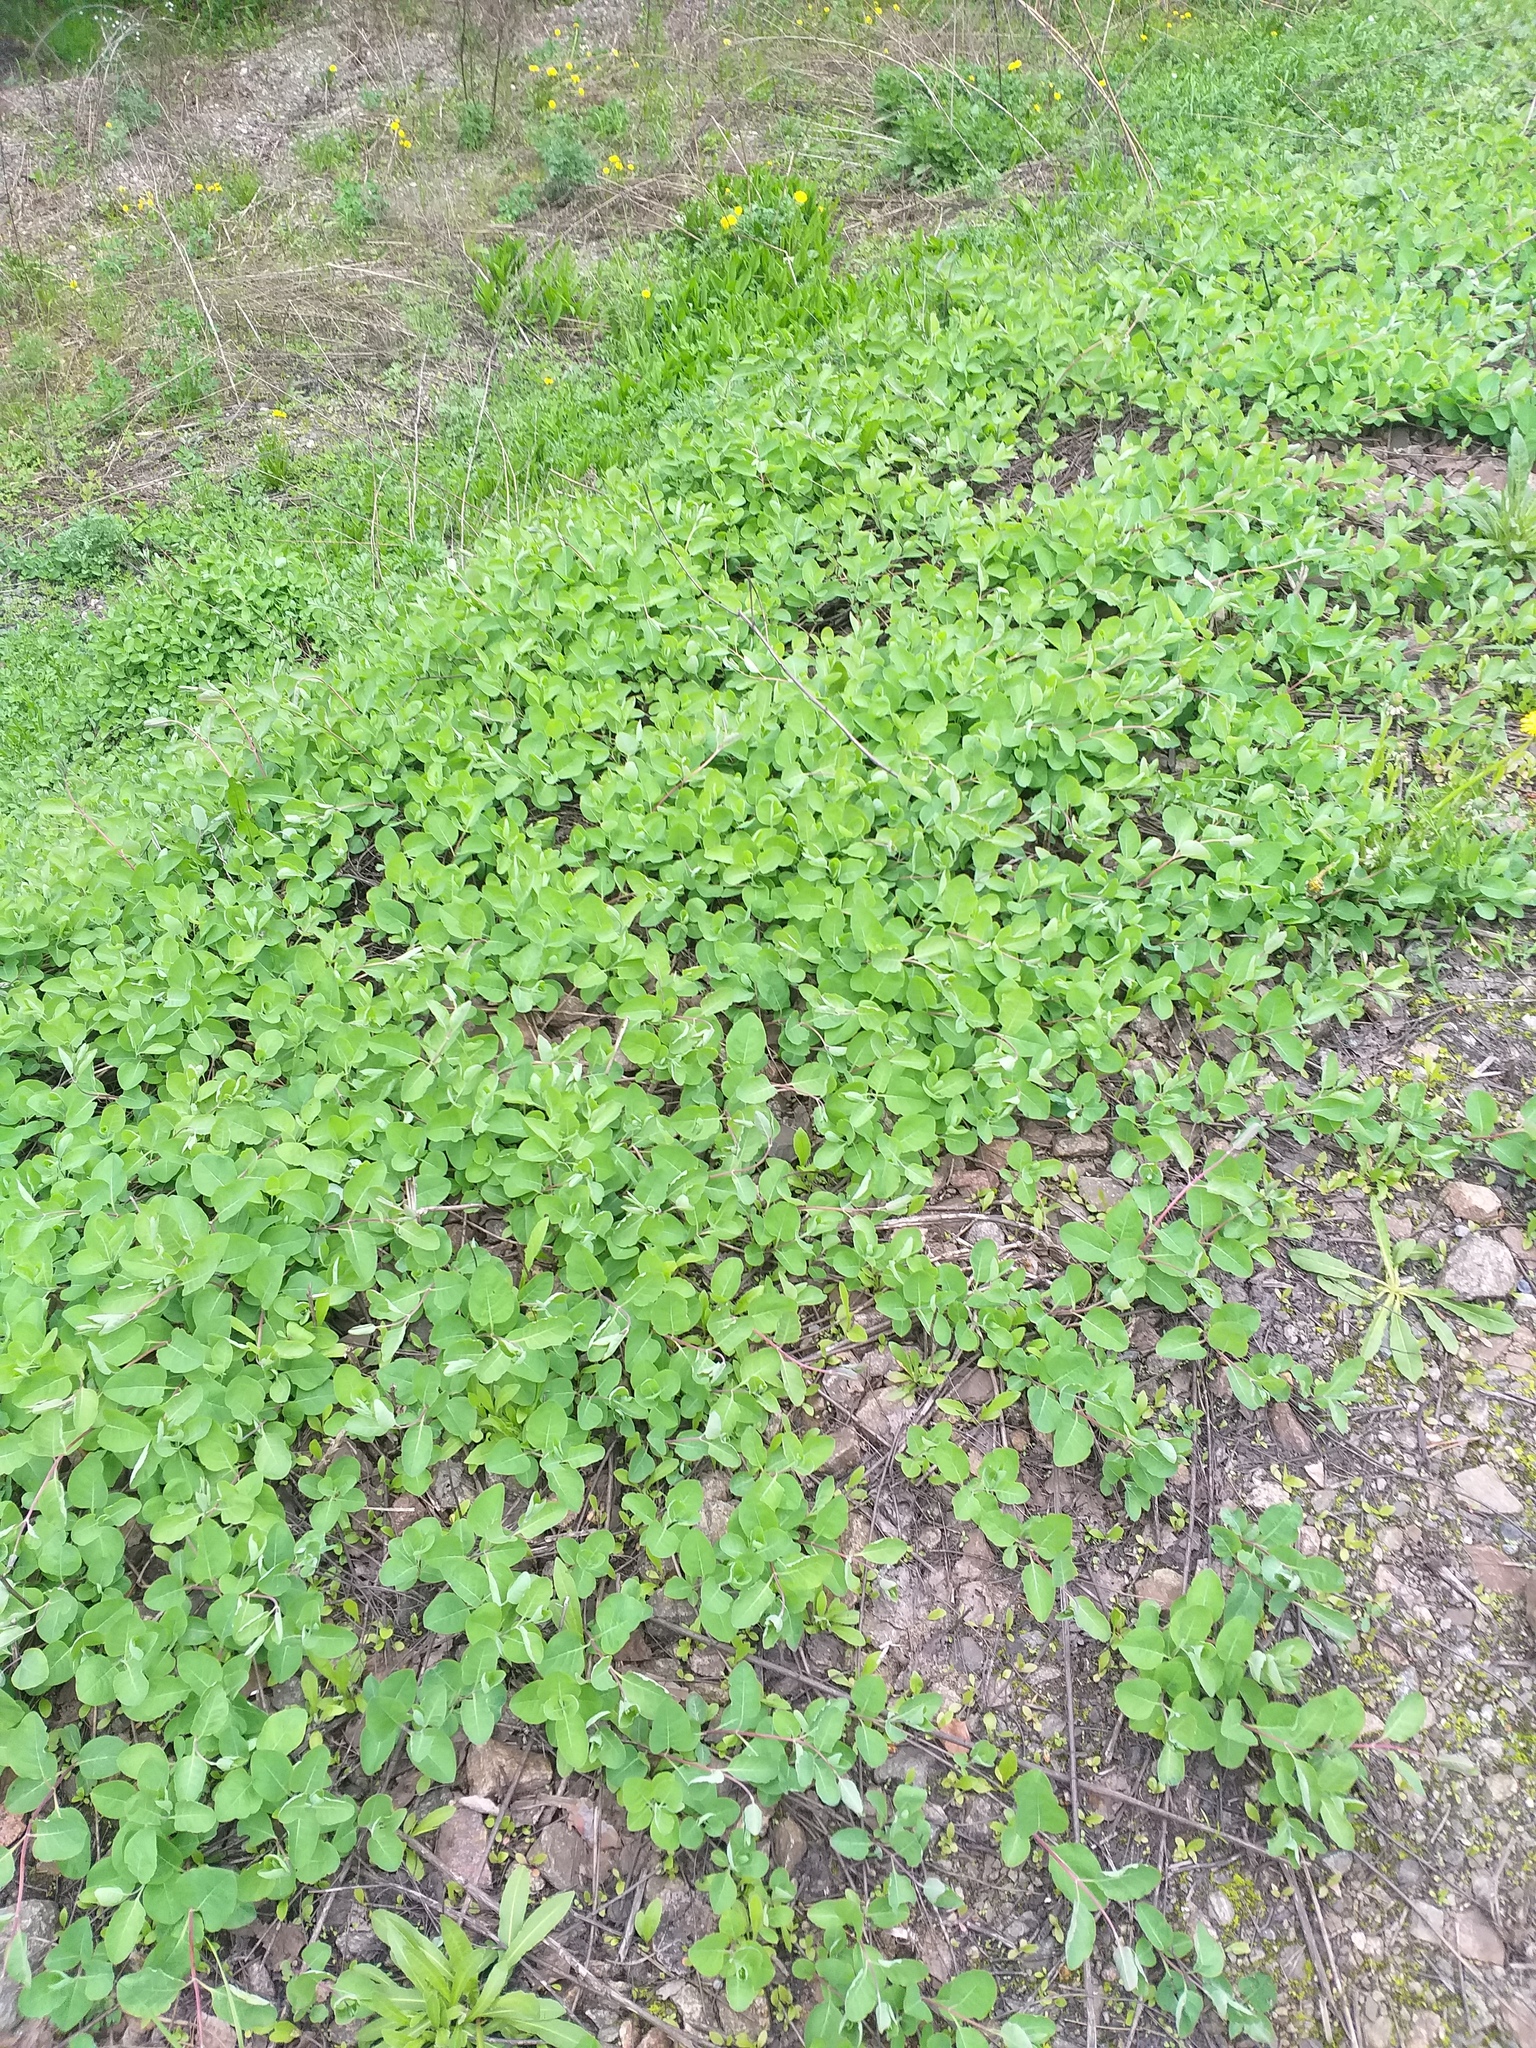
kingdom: Plantae
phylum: Tracheophyta
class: Magnoliopsida
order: Dipsacales
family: Caprifoliaceae
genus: Lonicera
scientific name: Lonicera caprifolium
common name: Perfoliate honeysuckle
